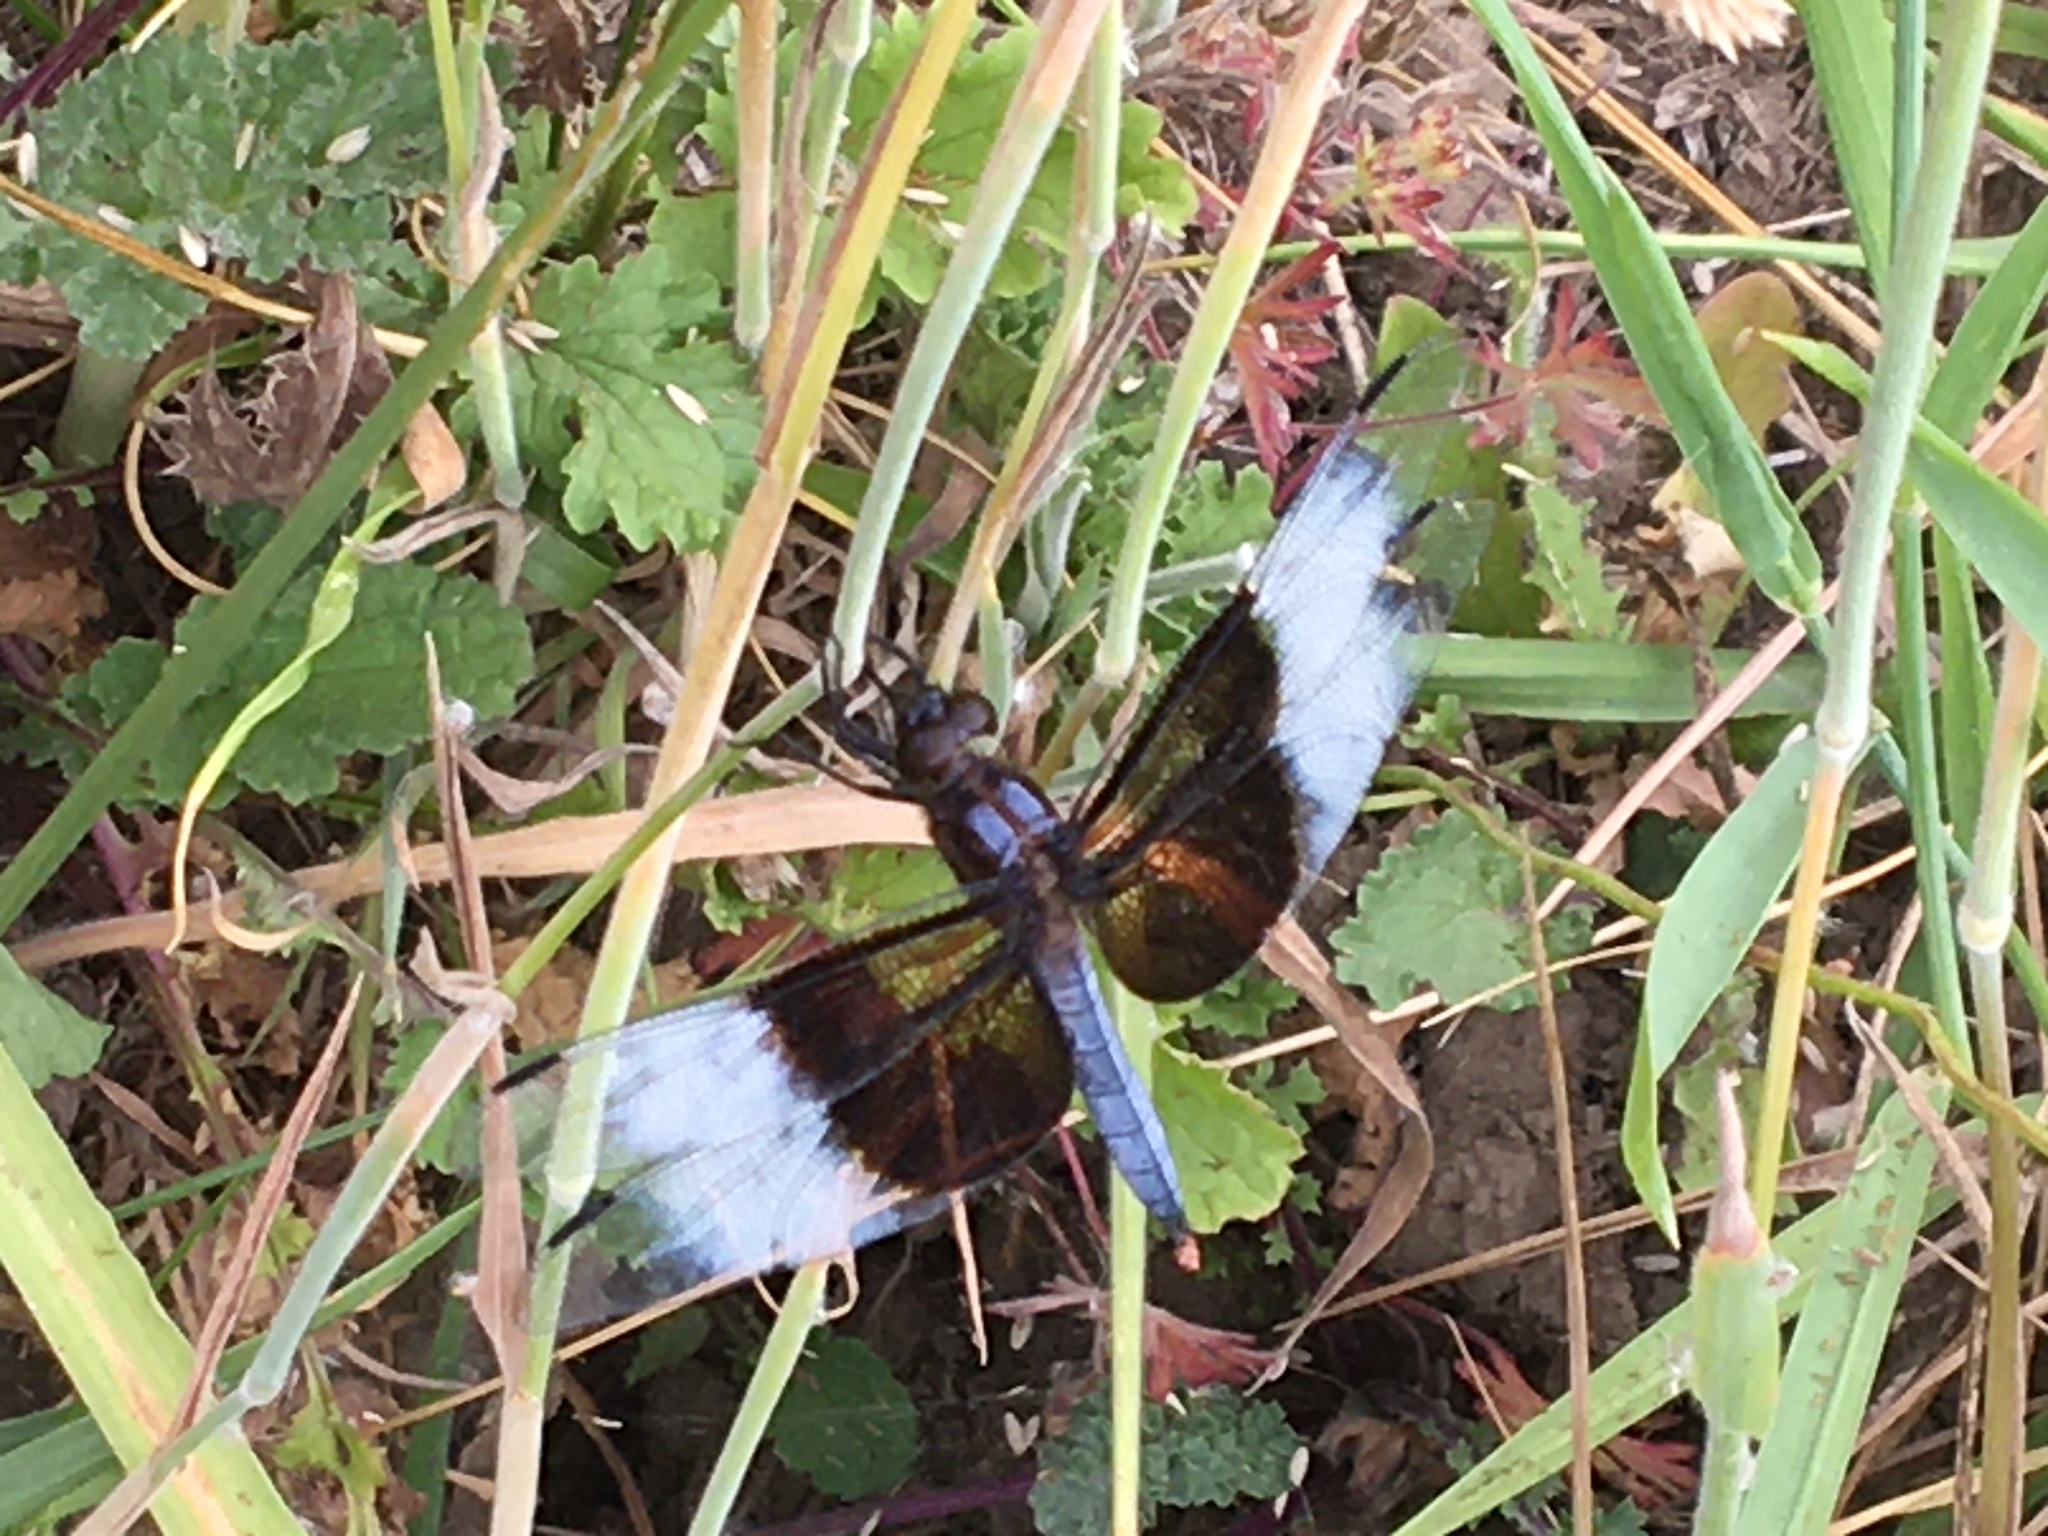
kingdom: Animalia
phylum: Arthropoda
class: Insecta
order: Odonata
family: Libellulidae
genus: Libellula
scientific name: Libellula luctuosa
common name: Widow skimmer
